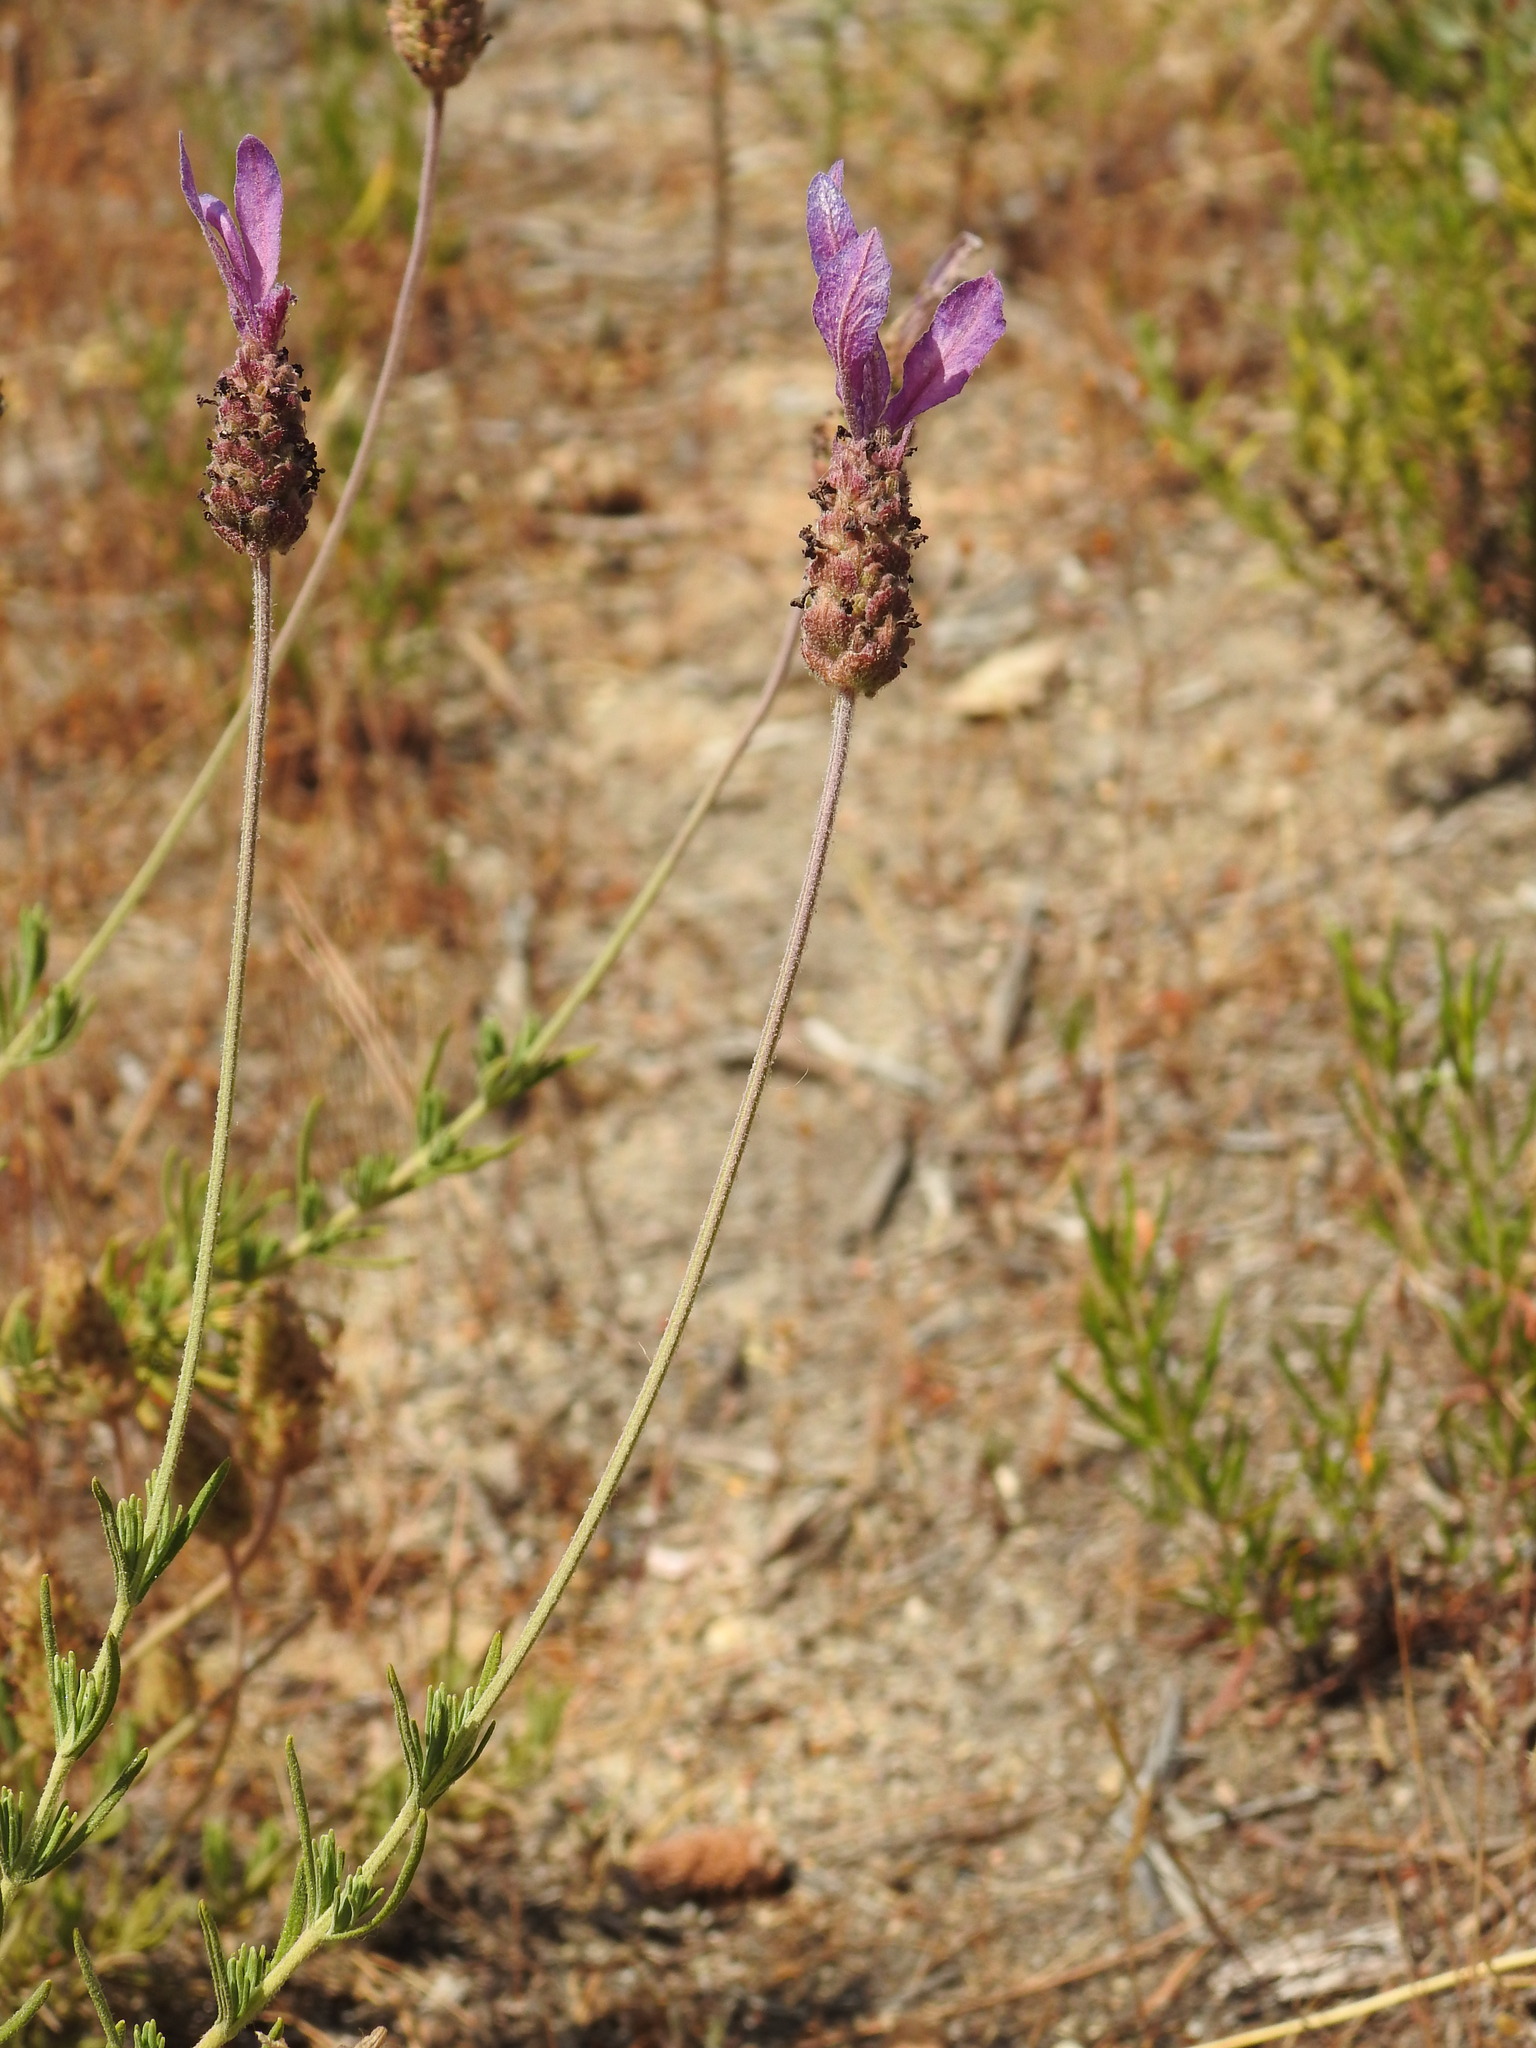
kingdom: Plantae
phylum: Tracheophyta
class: Magnoliopsida
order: Lamiales
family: Lamiaceae
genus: Lavandula
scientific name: Lavandula pedunculata
